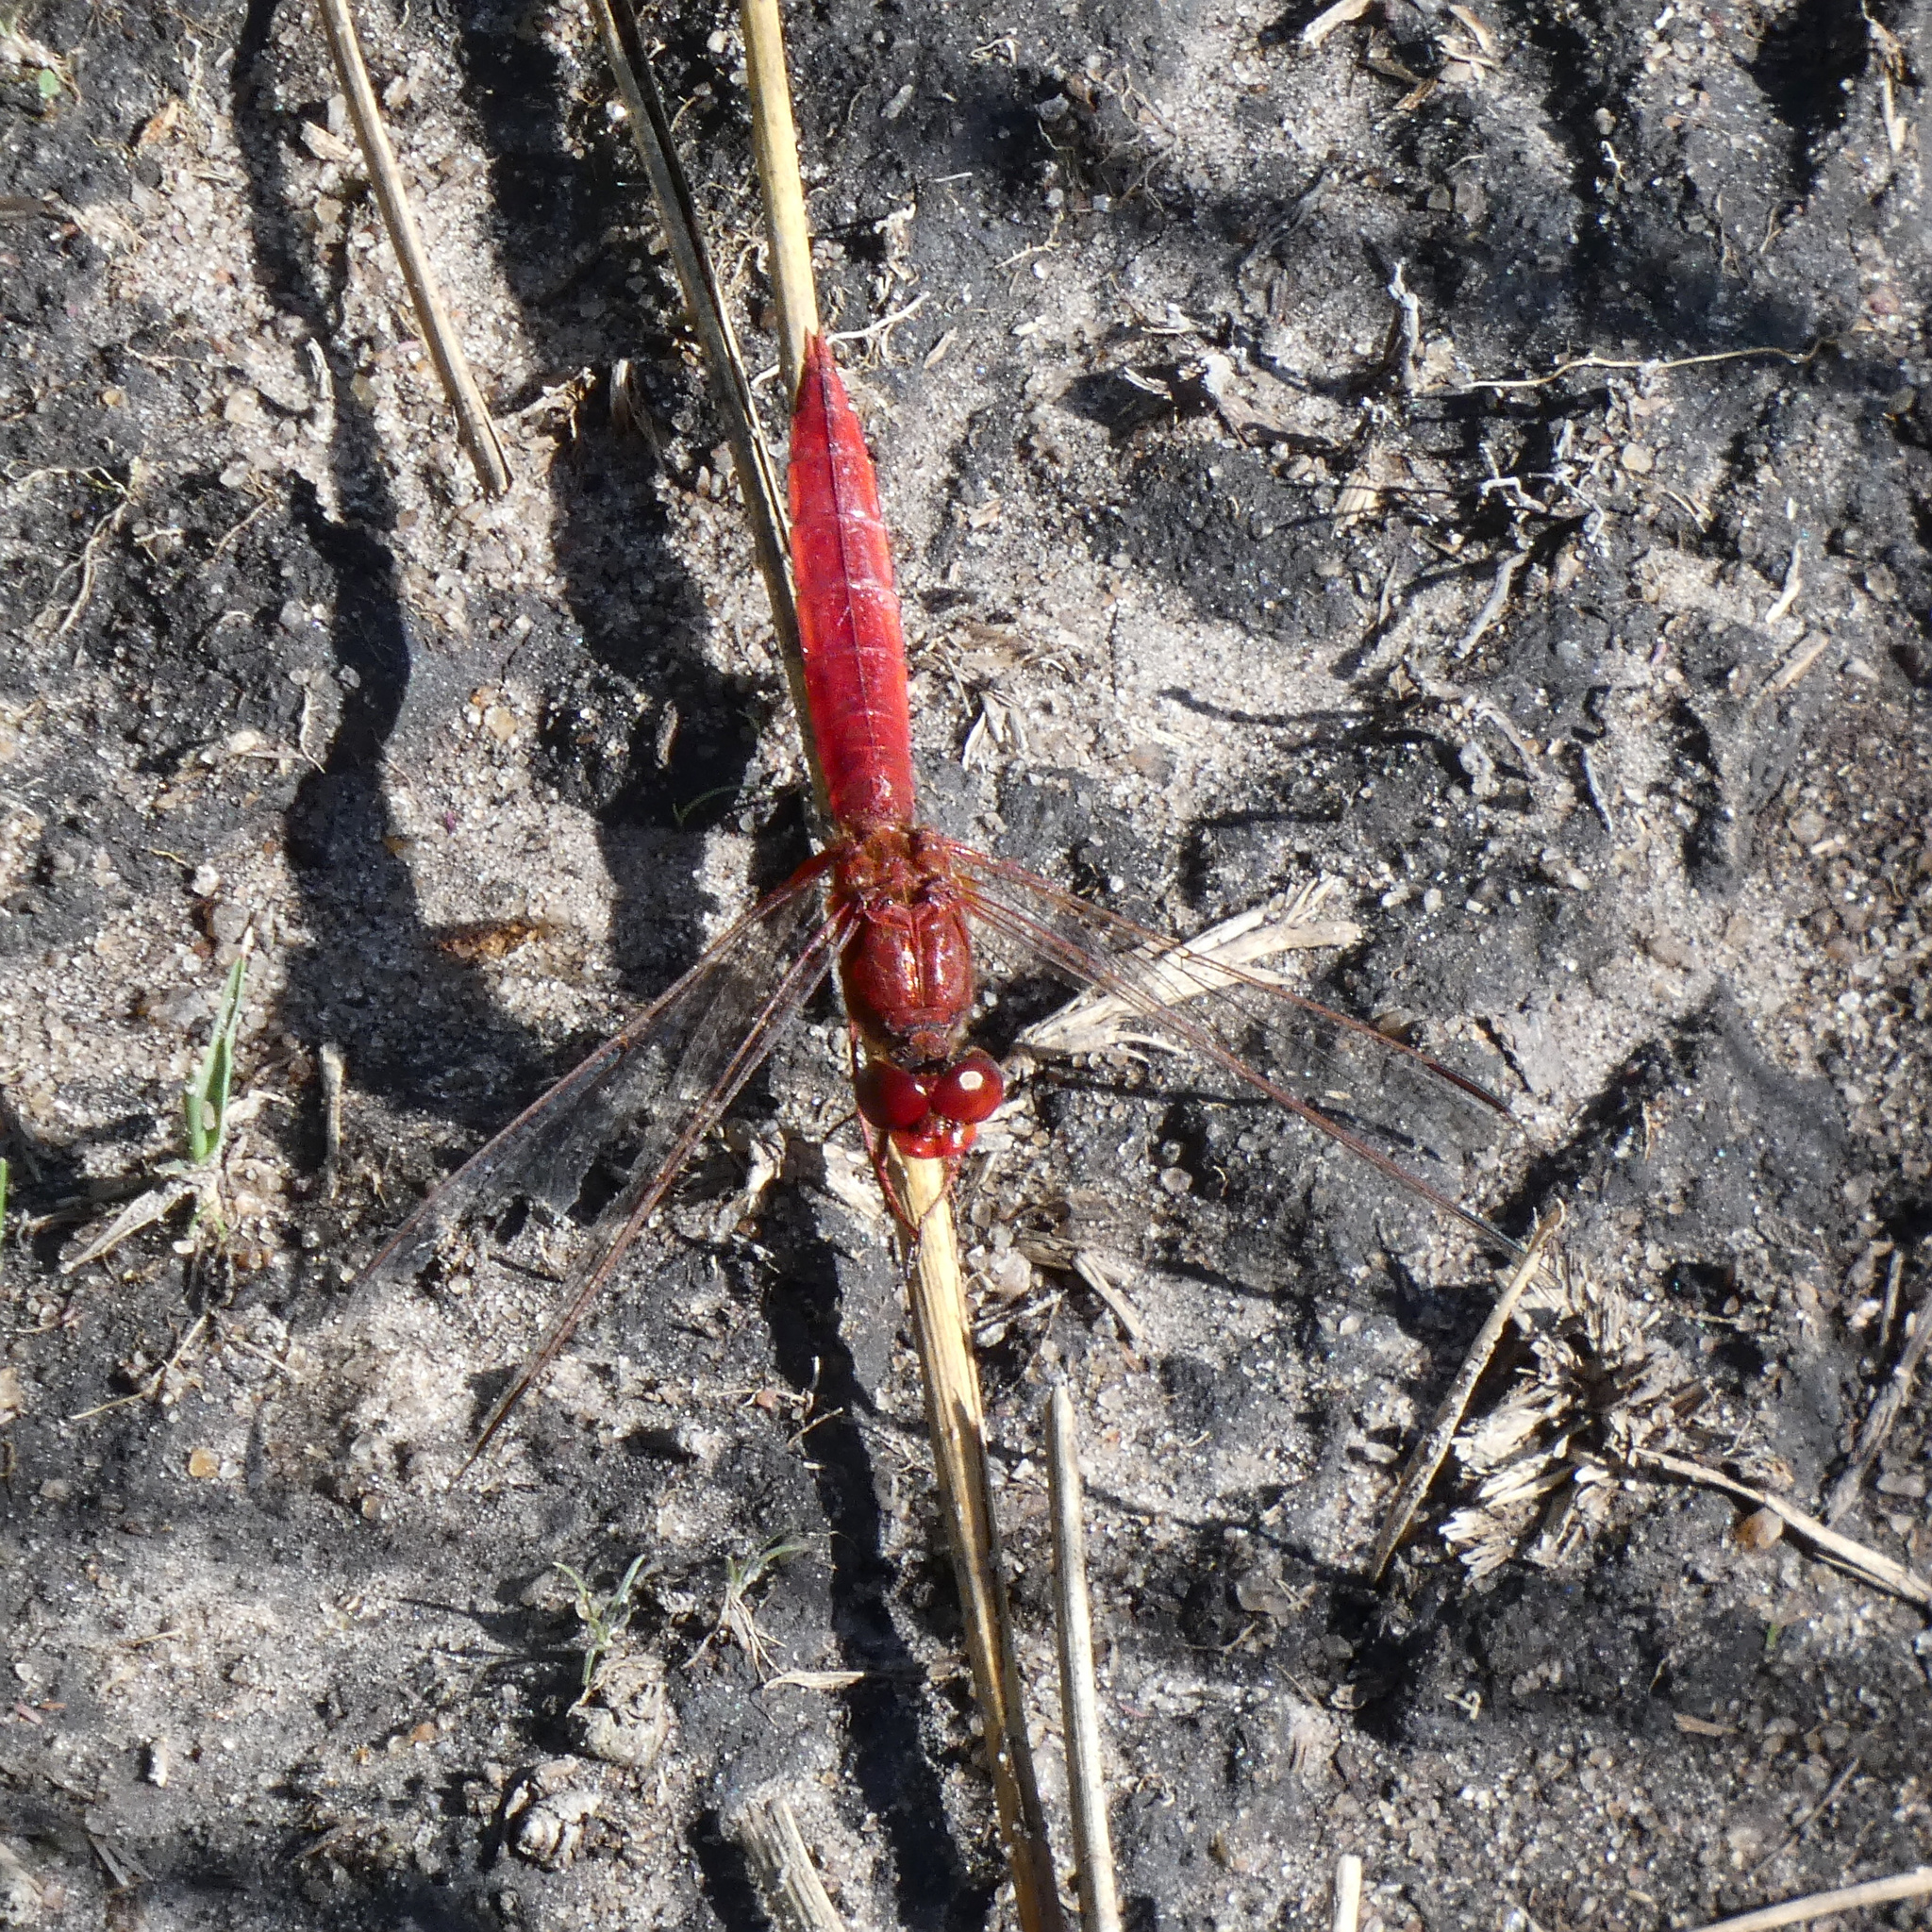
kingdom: Animalia
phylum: Arthropoda
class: Insecta
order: Odonata
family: Libellulidae
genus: Crocothemis
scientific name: Crocothemis erythraea
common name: Scarlet dragonfly
